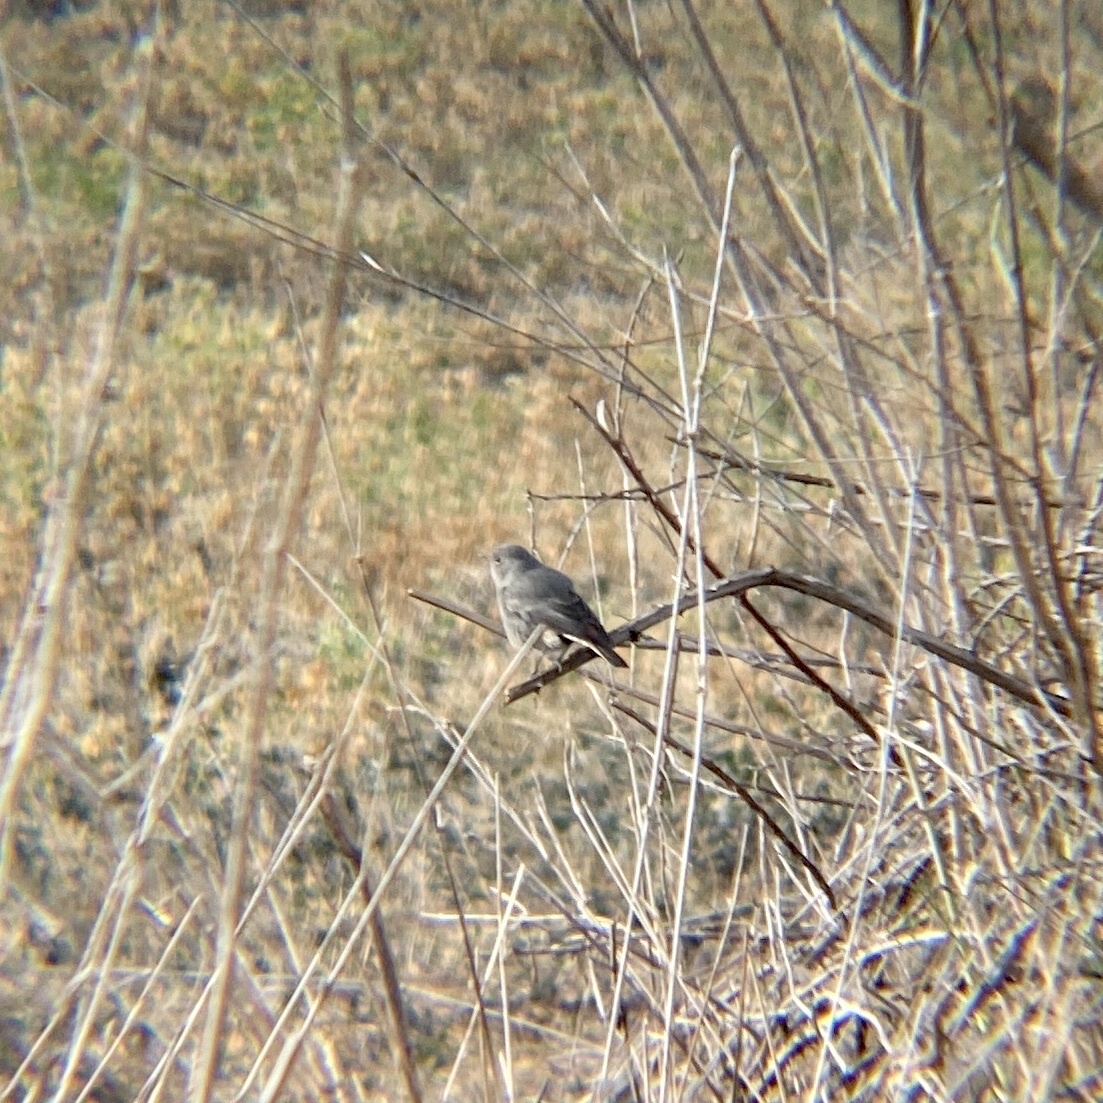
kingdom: Animalia
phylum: Chordata
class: Aves
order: Passeriformes
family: Muscicapidae
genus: Phoenicurus
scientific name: Phoenicurus ochruros
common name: Black redstart
